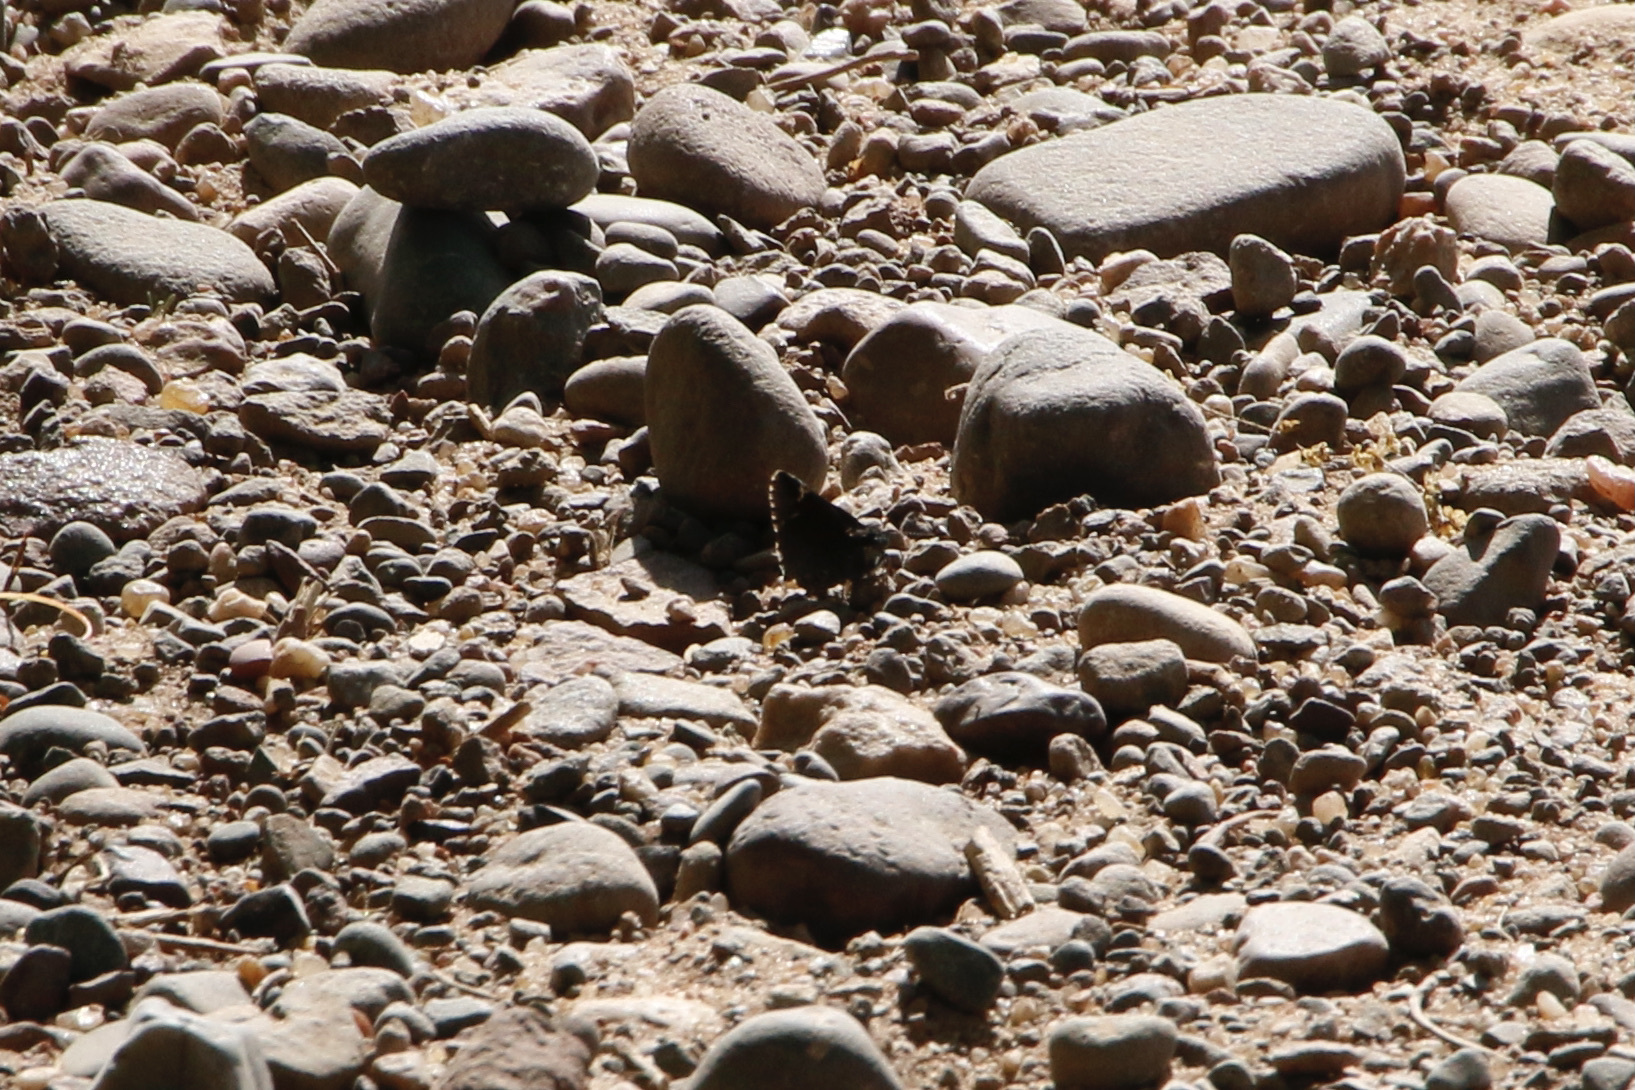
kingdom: Animalia
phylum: Arthropoda
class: Insecta
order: Lepidoptera
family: Hesperiidae
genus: Mastor
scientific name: Mastor vialis
